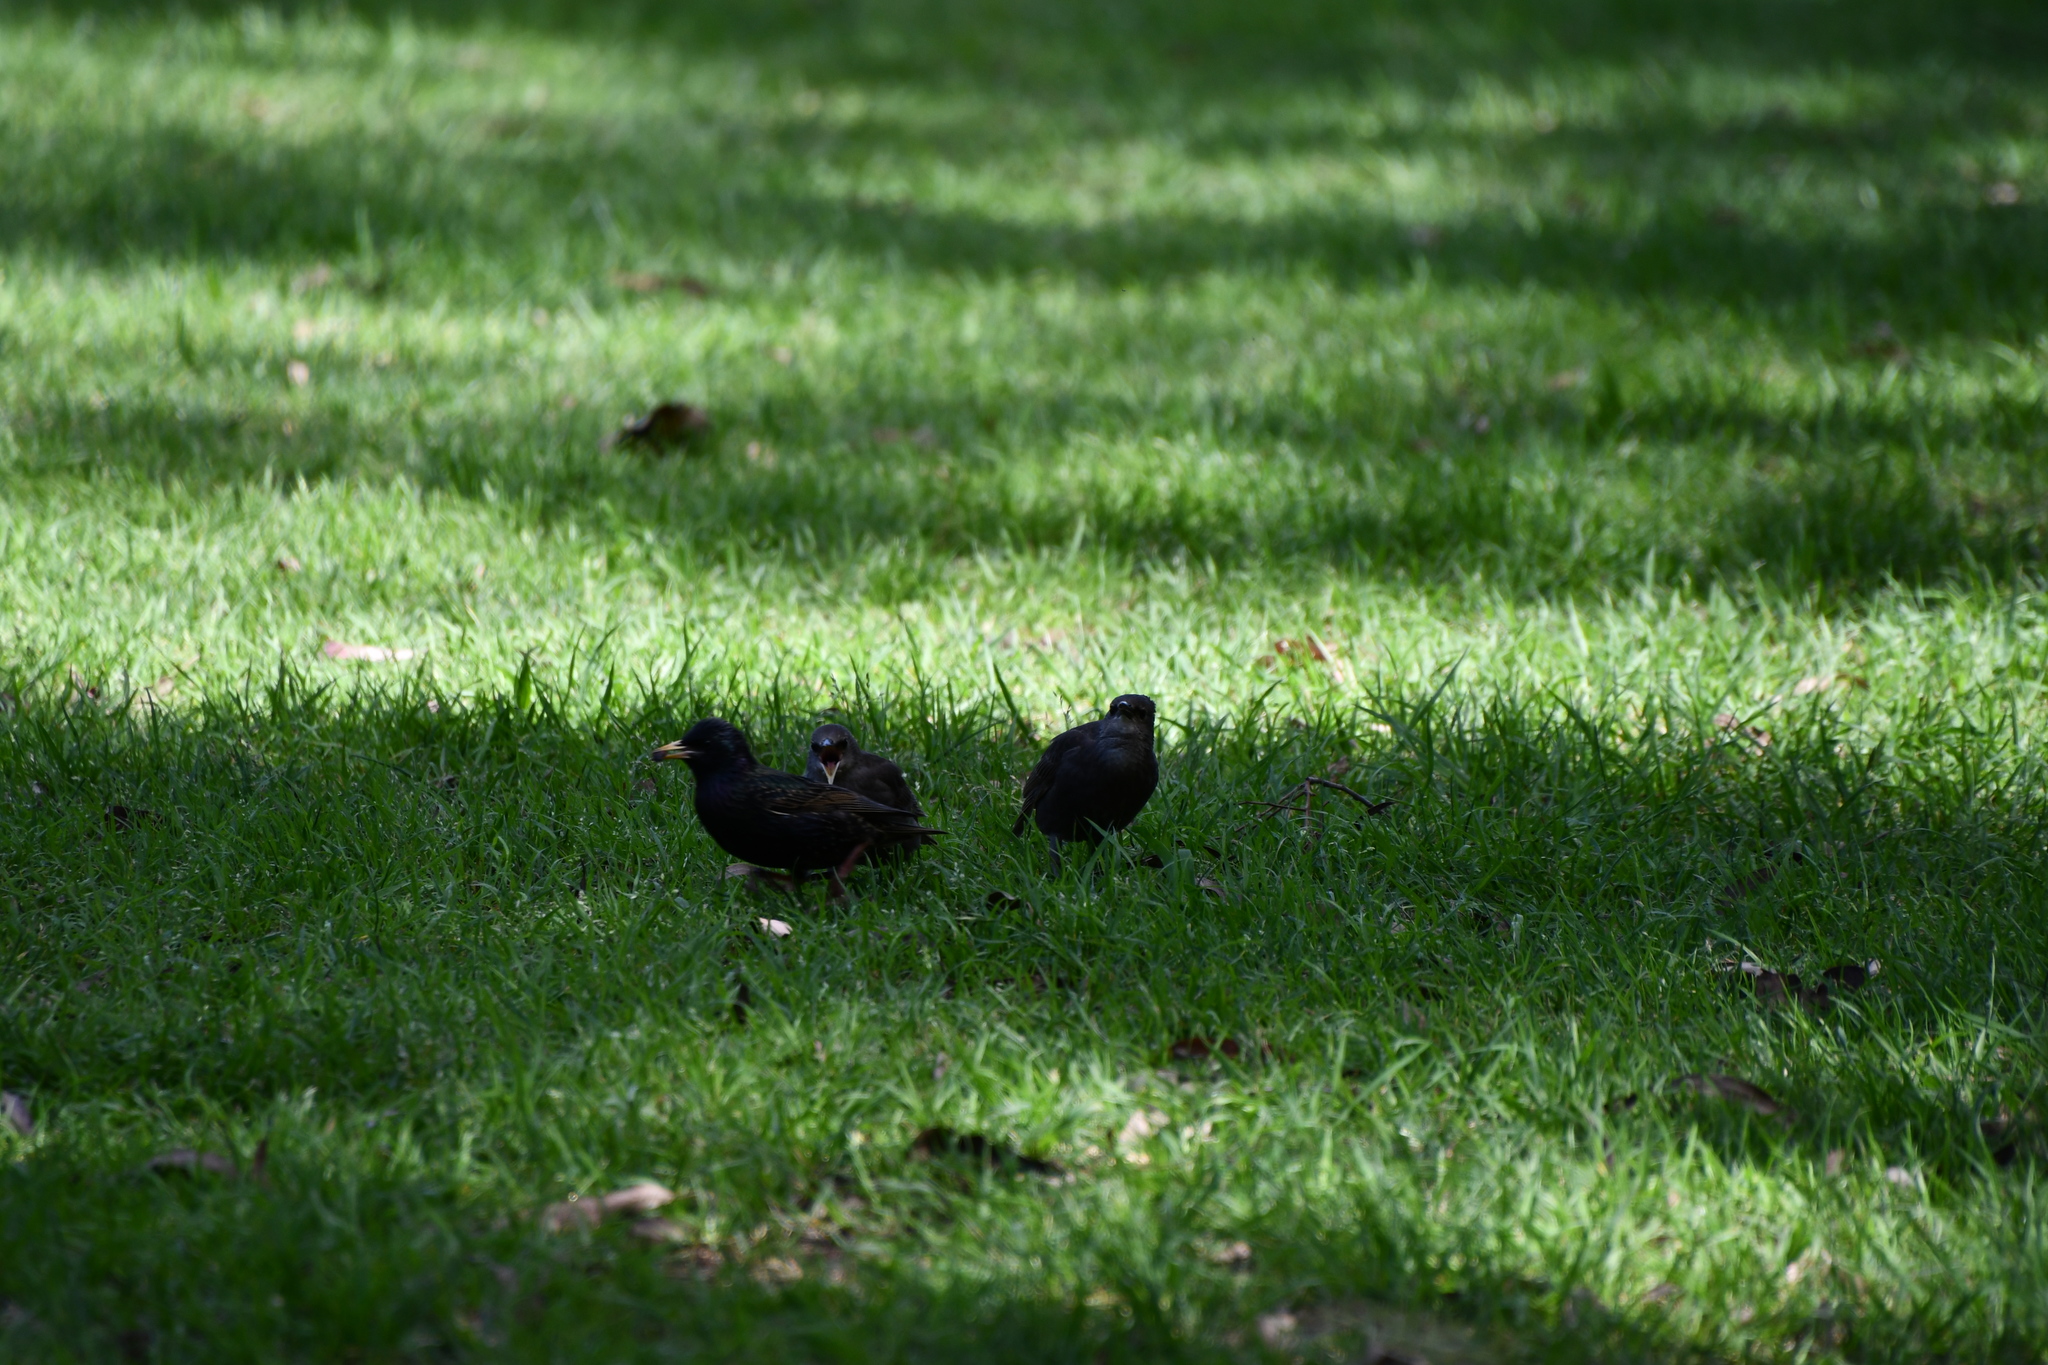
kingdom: Animalia
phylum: Chordata
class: Aves
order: Passeriformes
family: Sturnidae
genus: Sturnus
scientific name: Sturnus vulgaris
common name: Common starling
